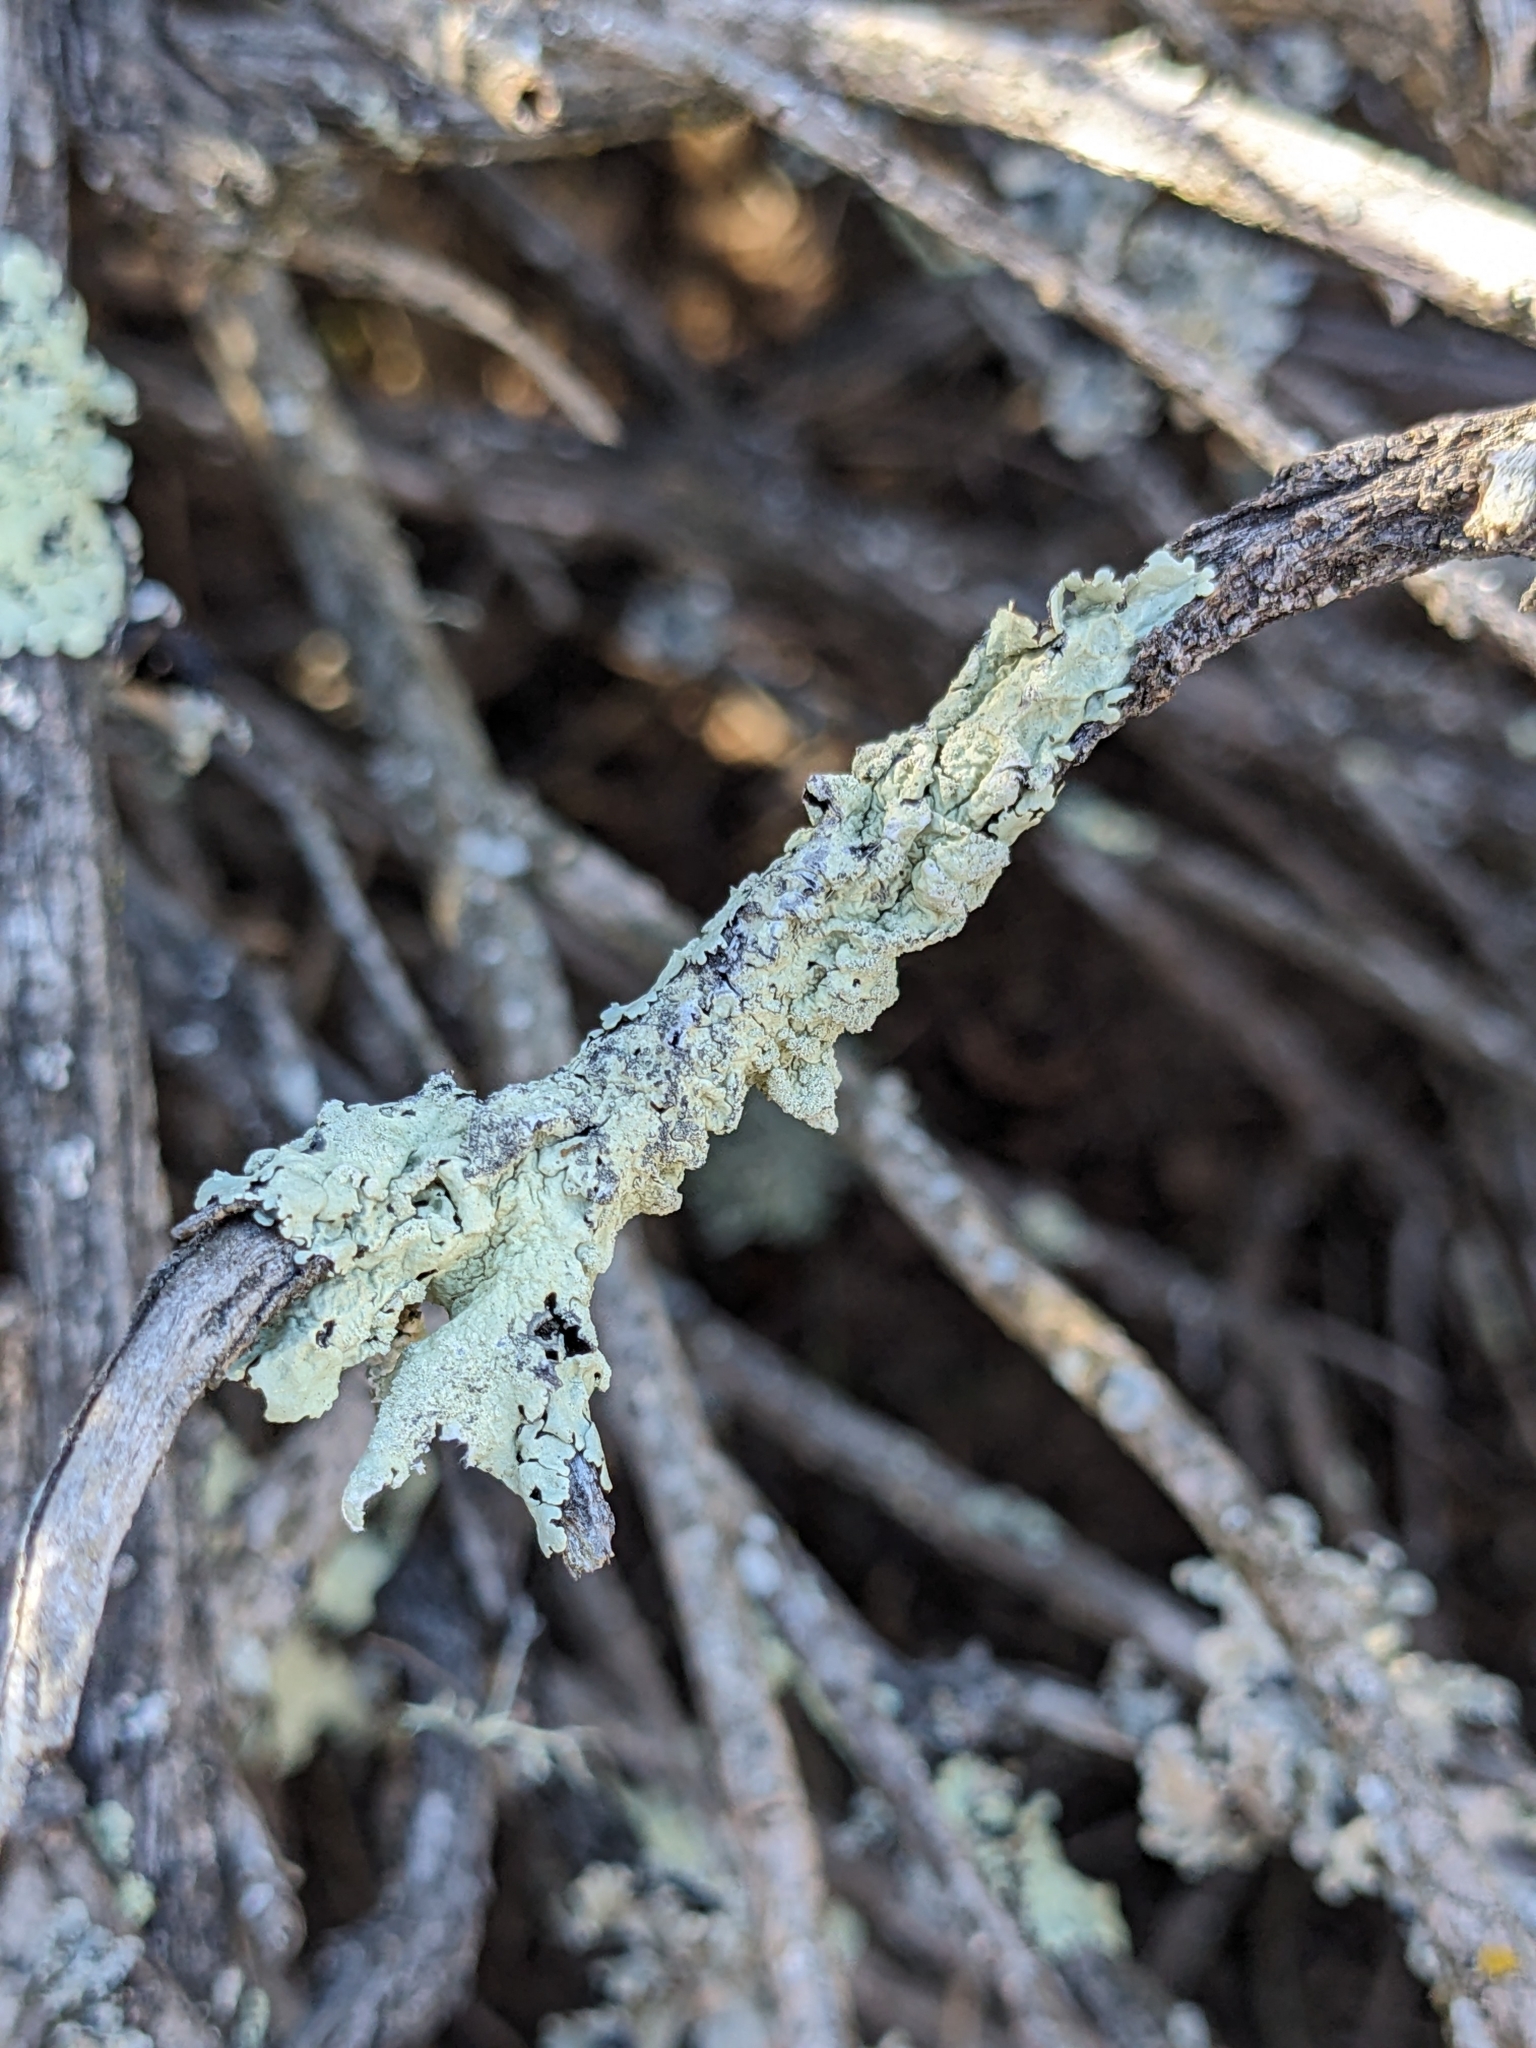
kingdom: Fungi
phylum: Ascomycota
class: Lecanoromycetes
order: Lecanorales
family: Parmeliaceae
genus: Flavoparmelia
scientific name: Flavoparmelia caperata
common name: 40-mile per hour lichen
